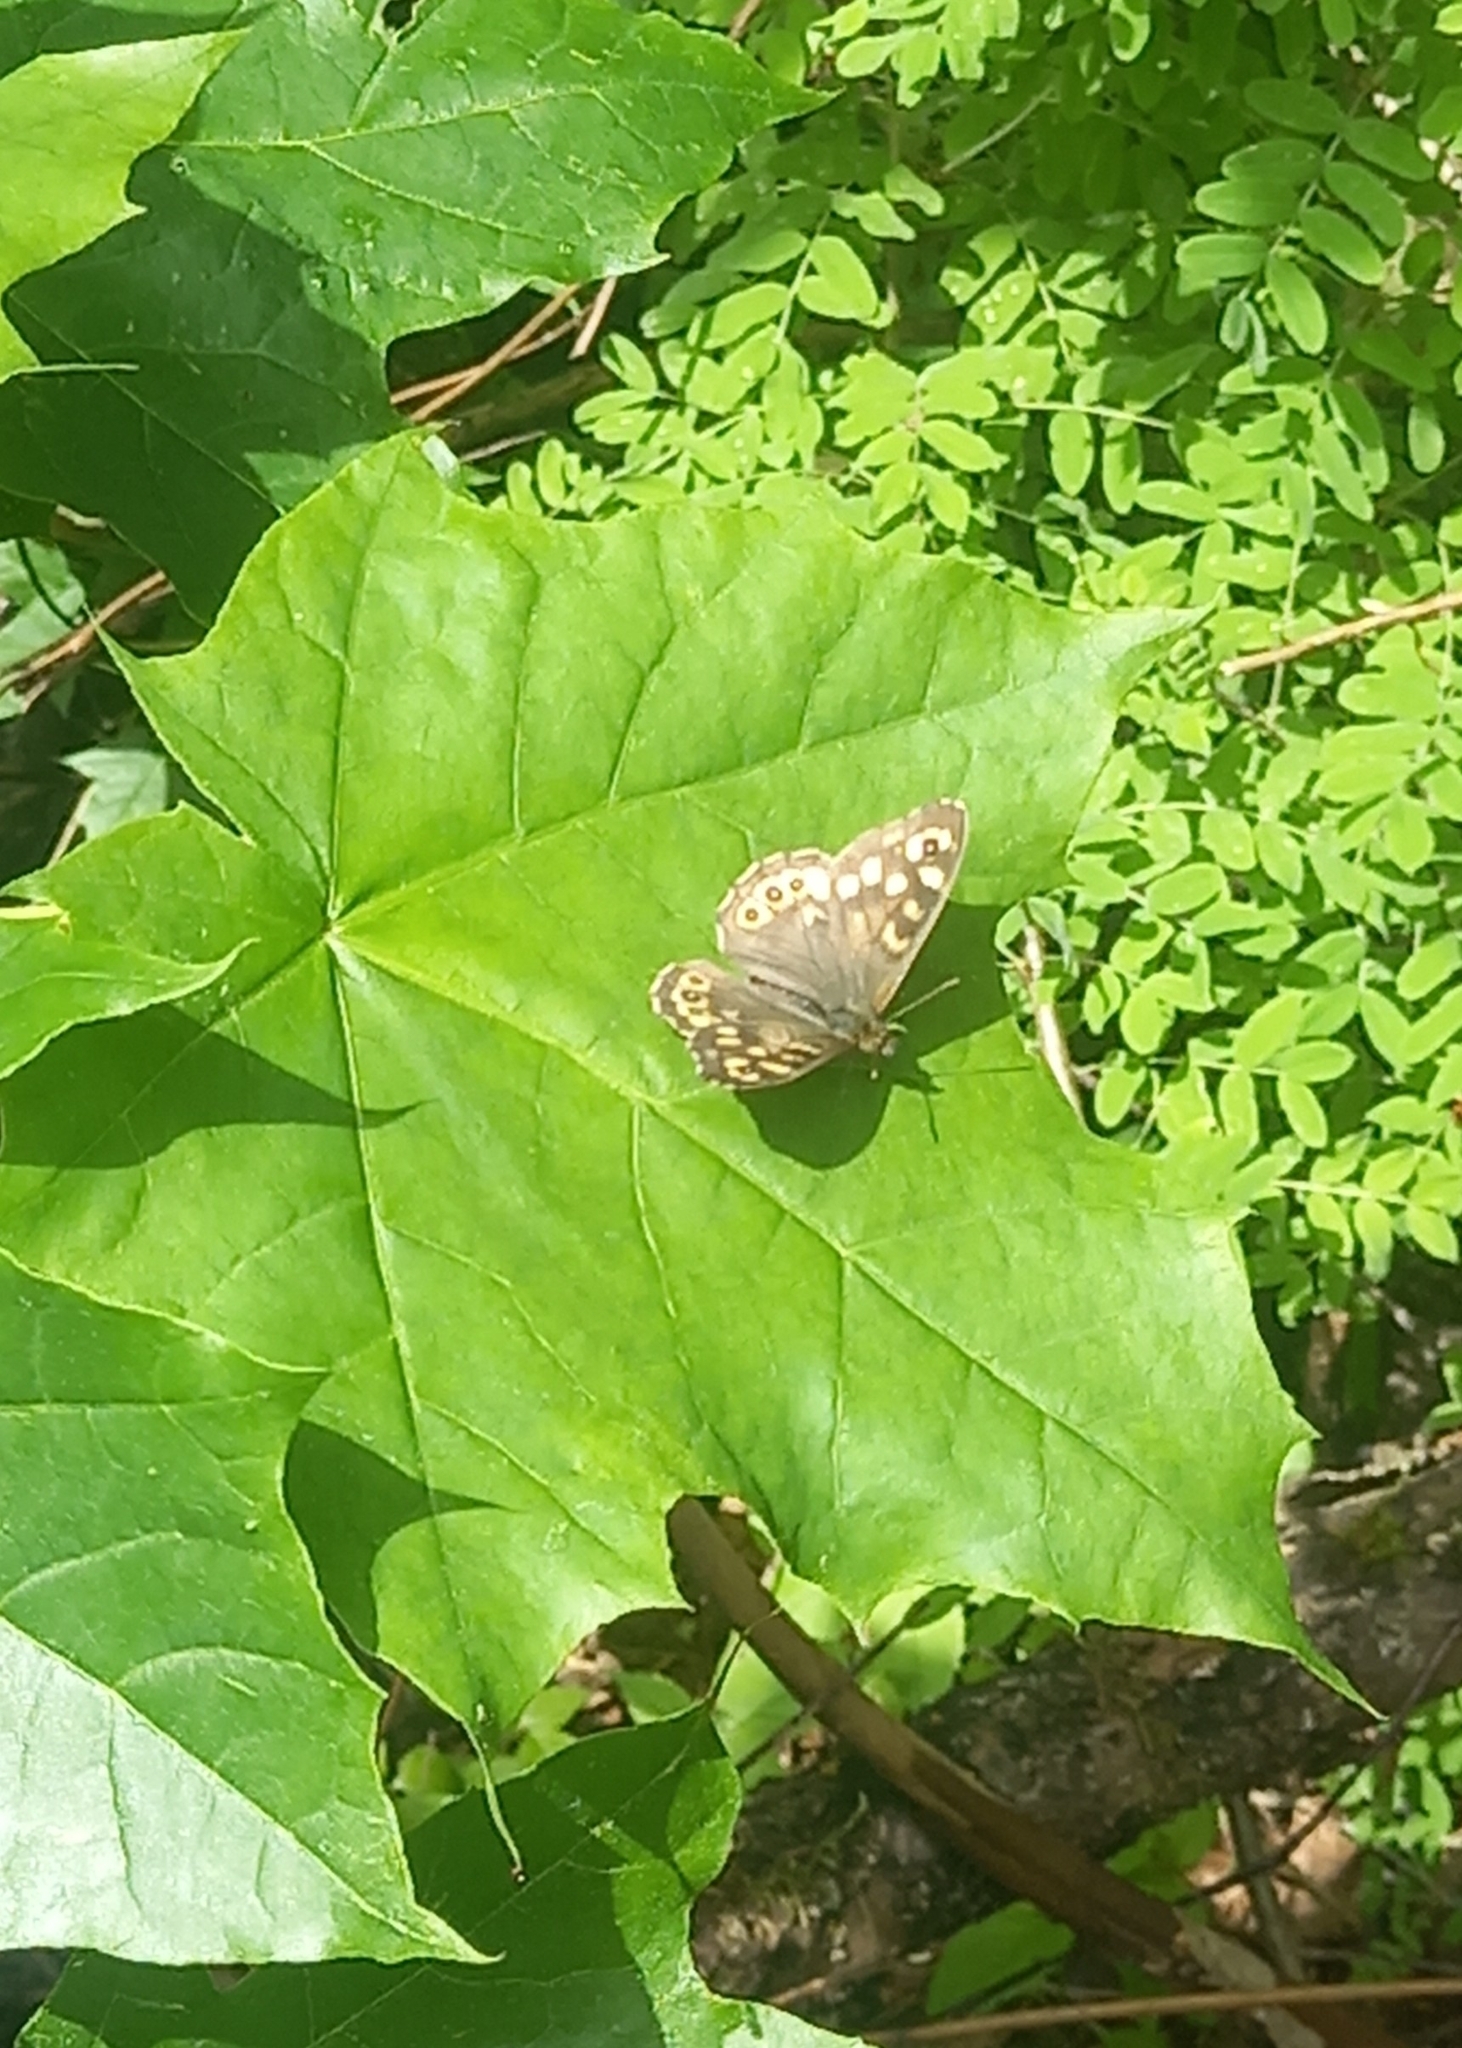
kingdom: Animalia
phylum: Arthropoda
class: Insecta
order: Lepidoptera
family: Nymphalidae
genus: Pararge
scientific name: Pararge aegeria
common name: Speckled wood
